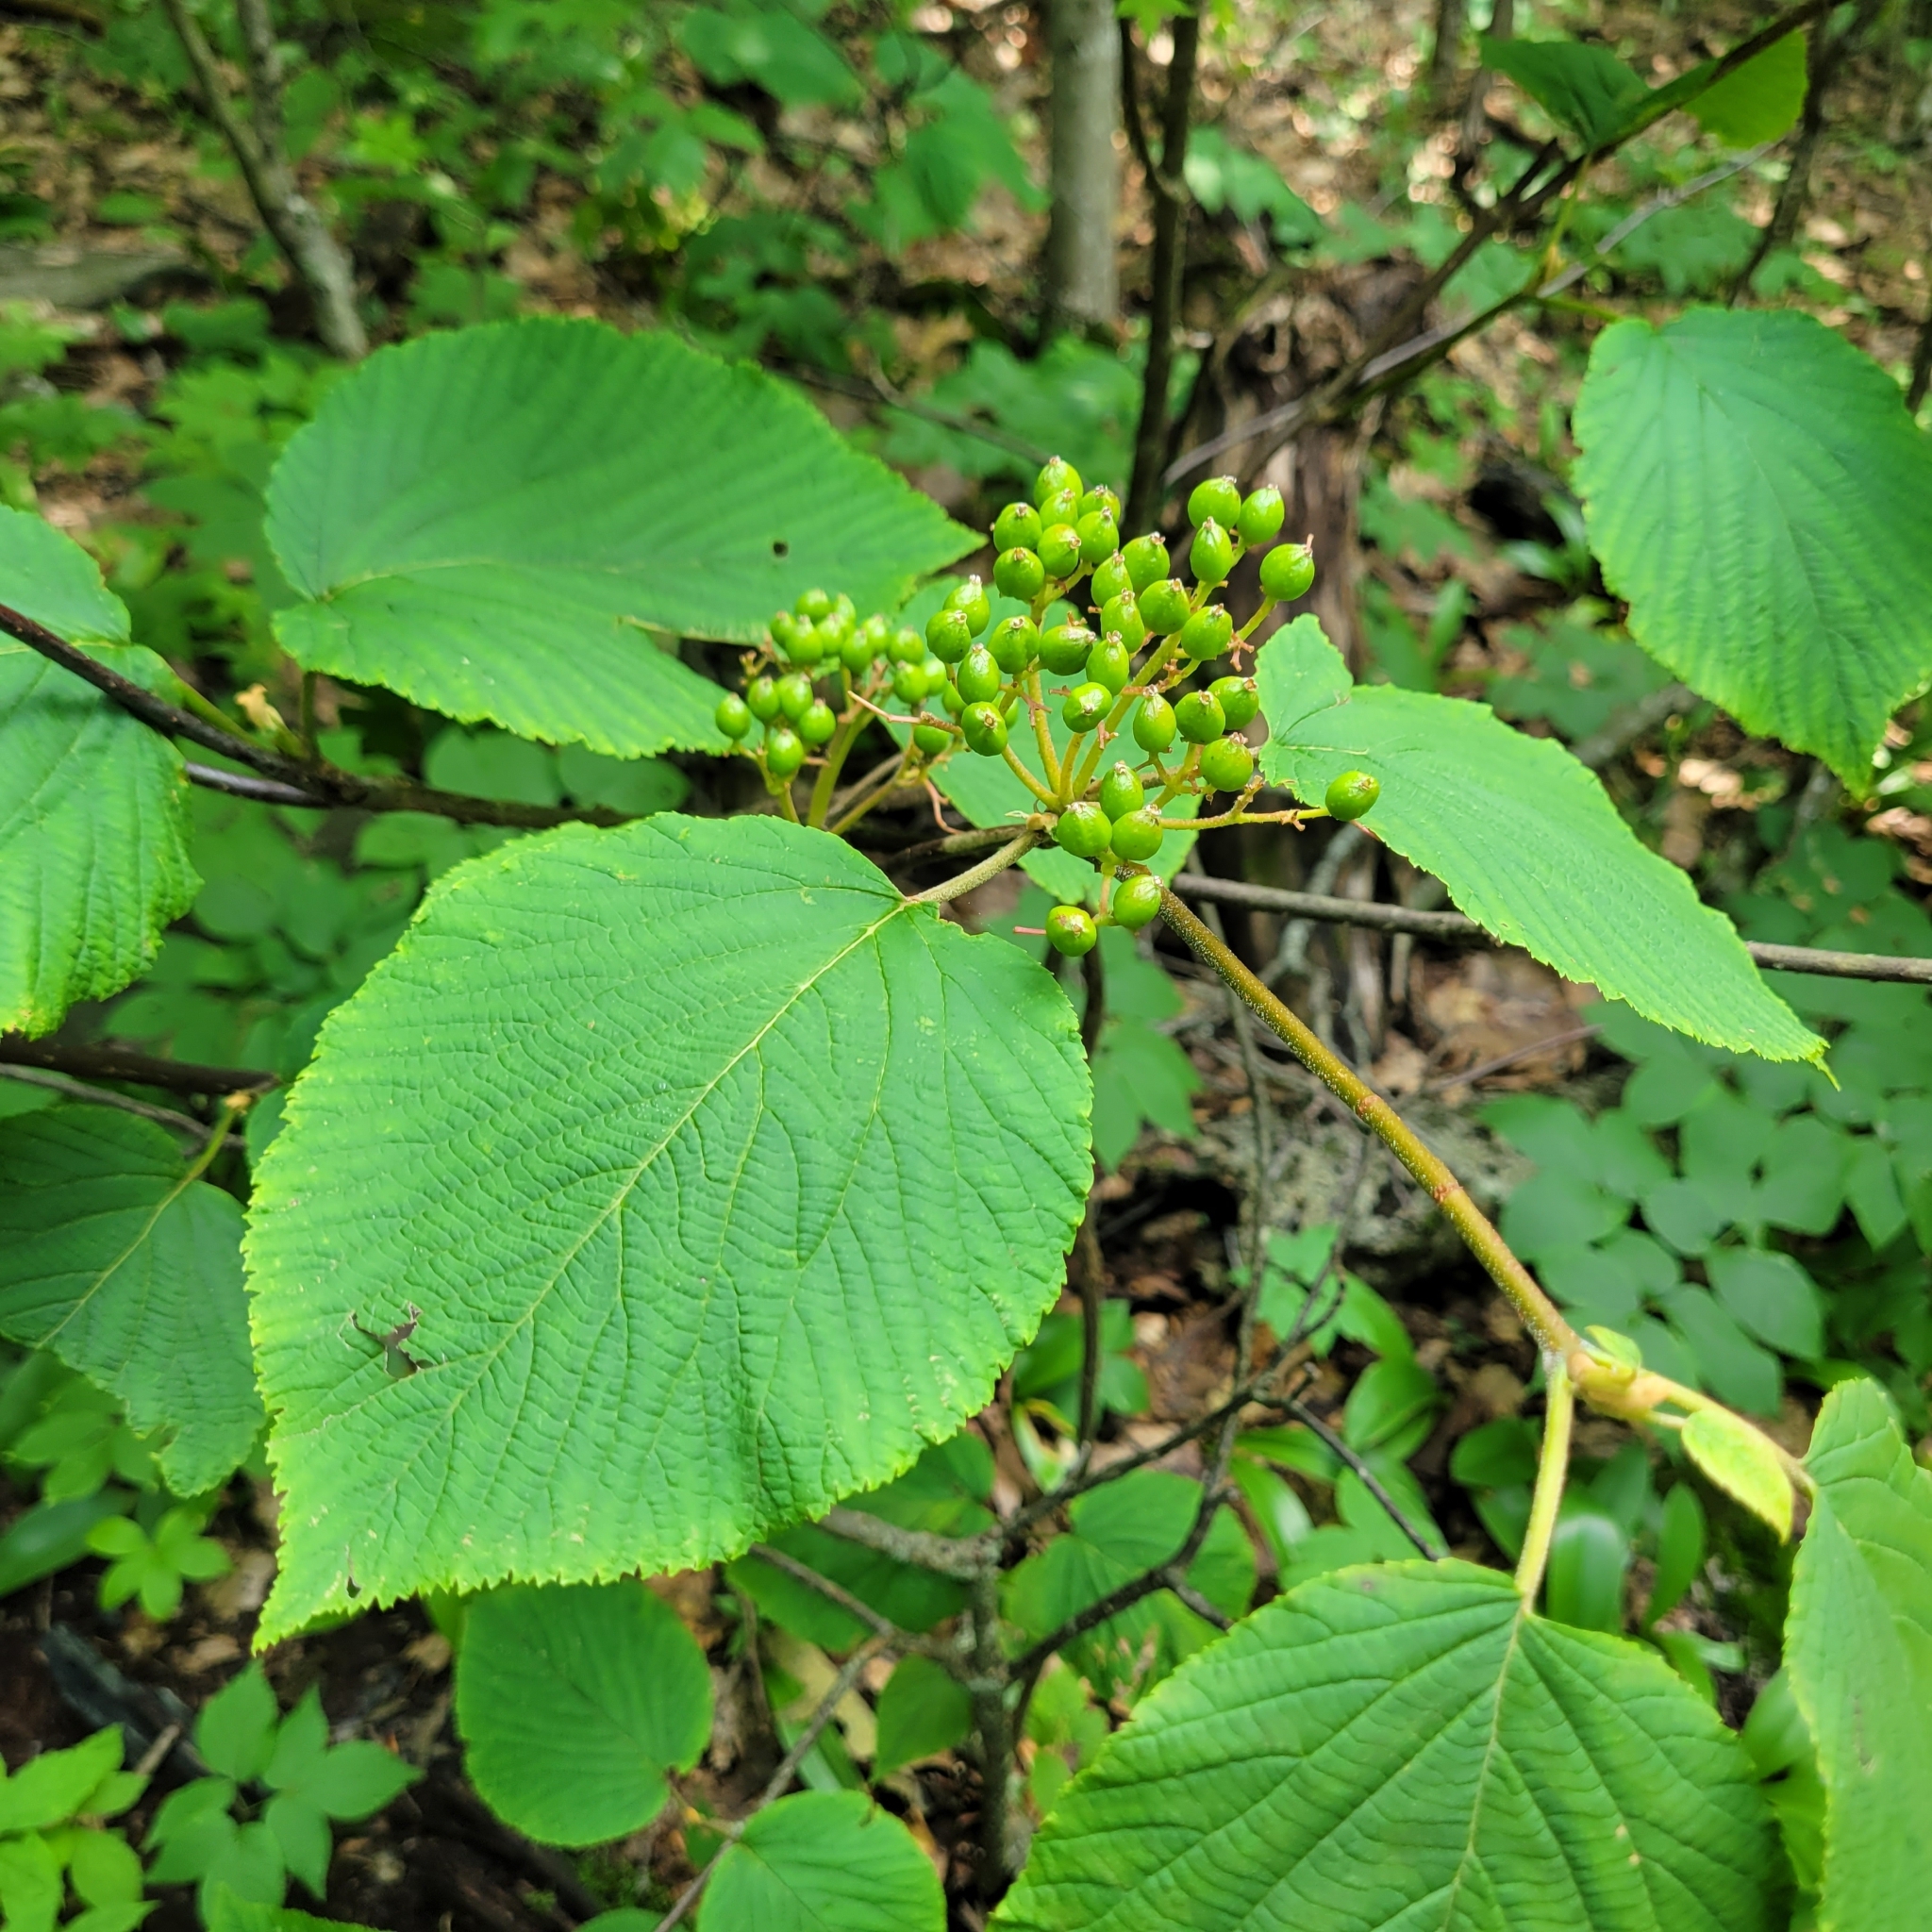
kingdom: Plantae
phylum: Tracheophyta
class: Magnoliopsida
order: Dipsacales
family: Viburnaceae
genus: Viburnum
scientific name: Viburnum lantanoides
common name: Hobblebush
